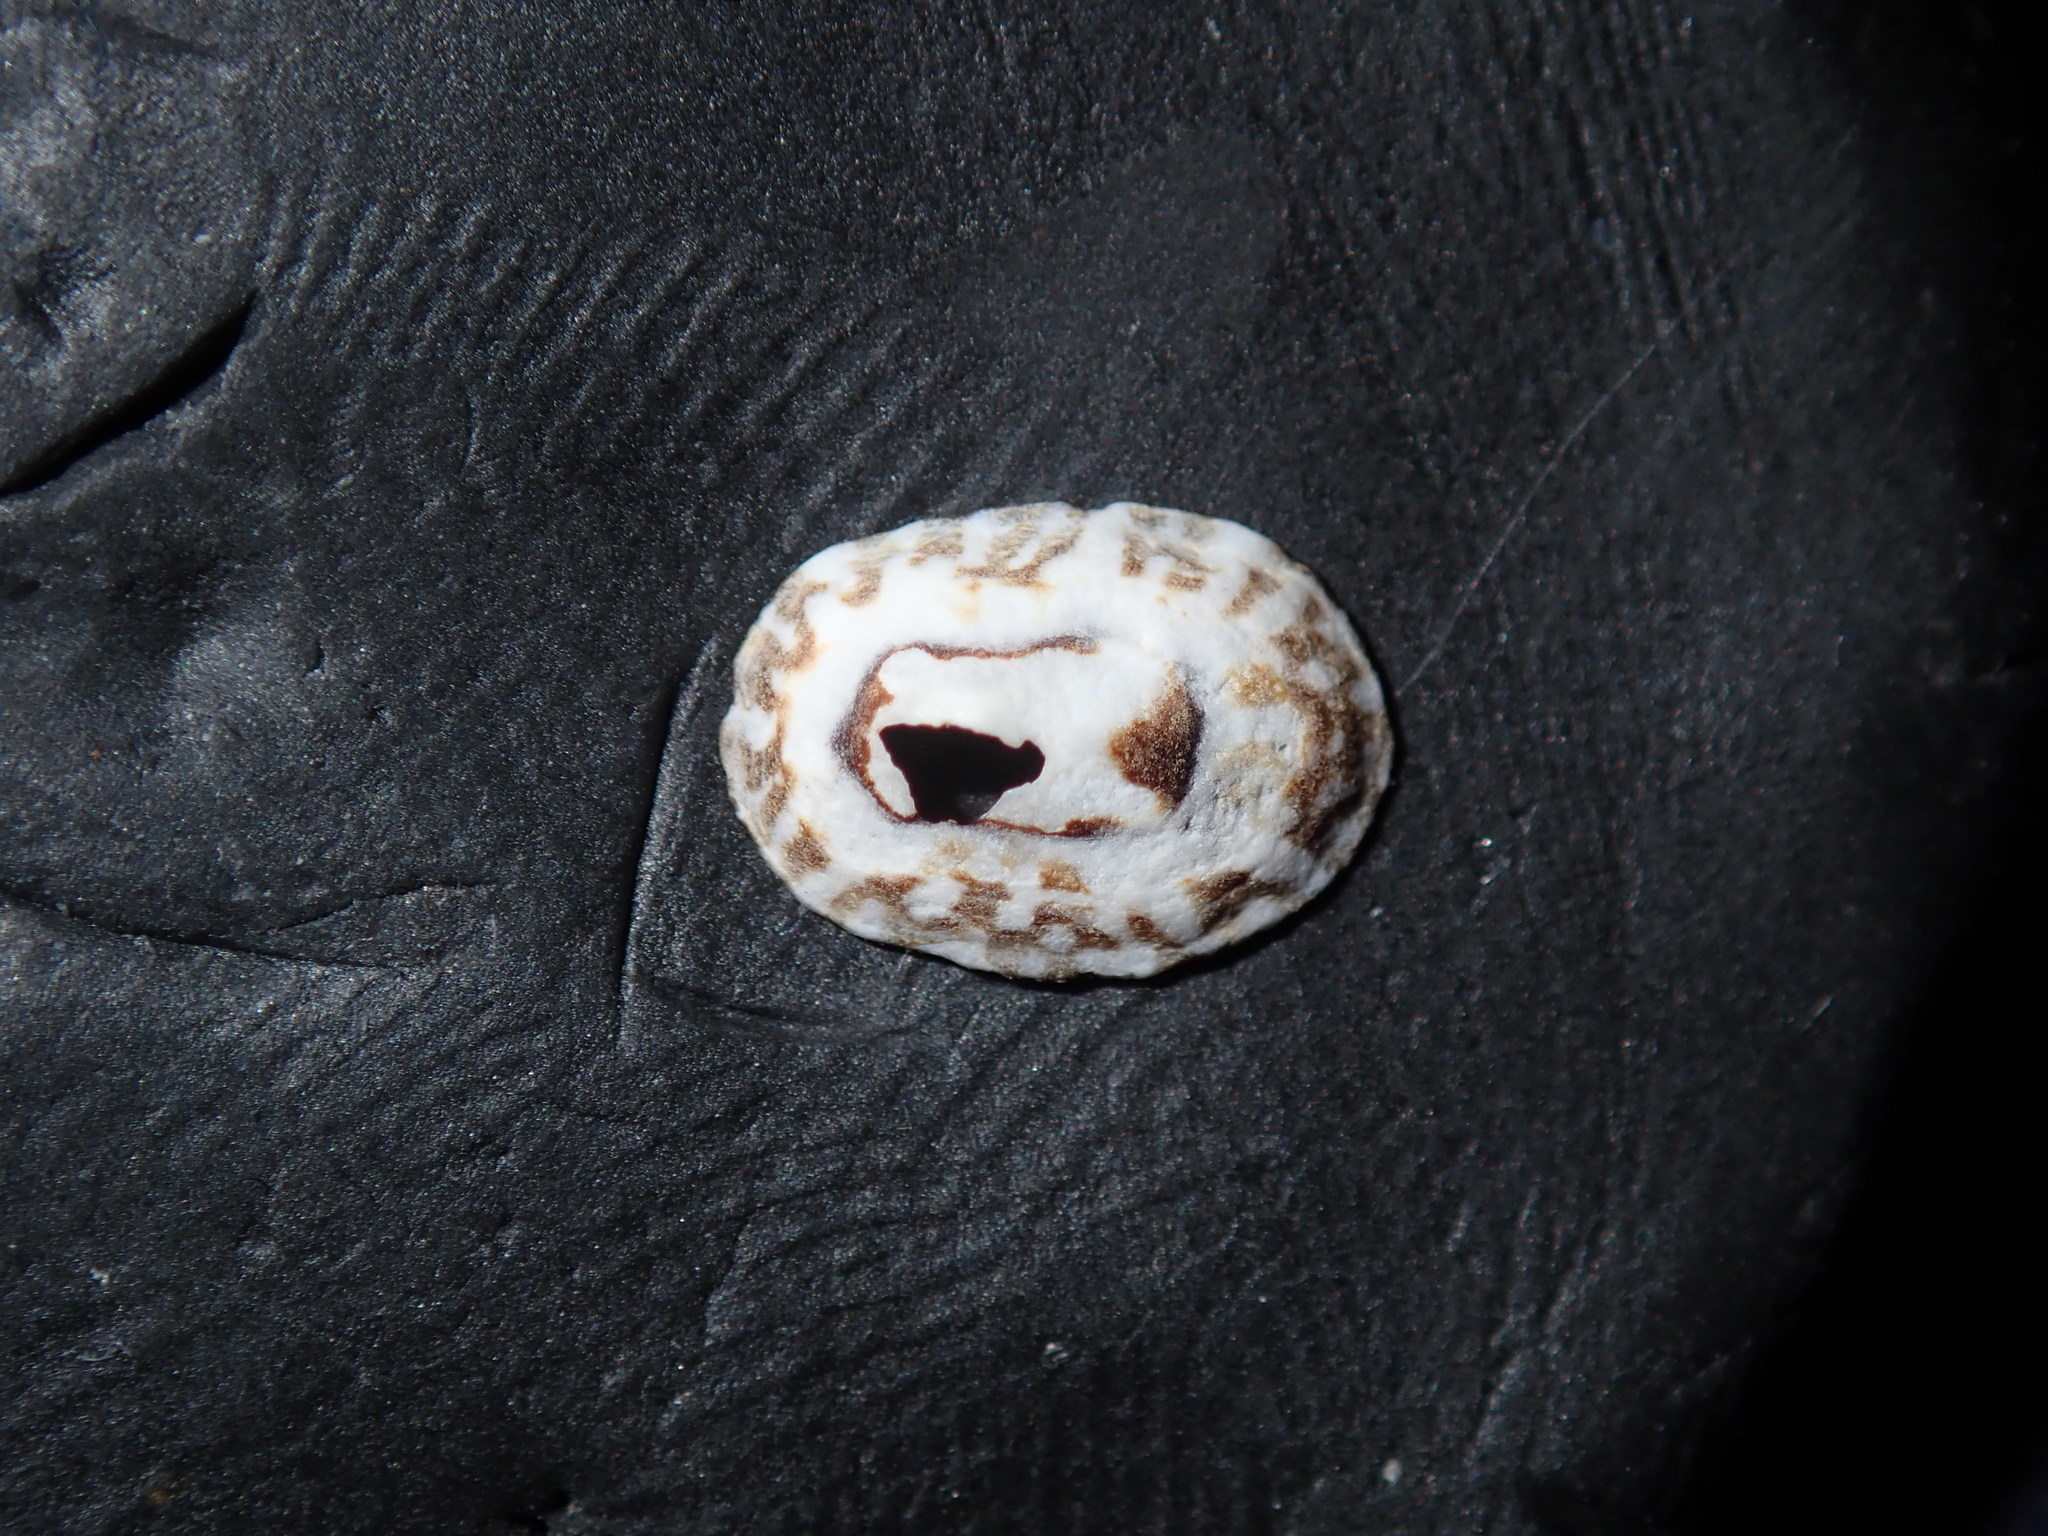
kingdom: Animalia
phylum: Mollusca
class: Gastropoda
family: Lottiidae
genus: Patelloida
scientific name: Patelloida mimula
